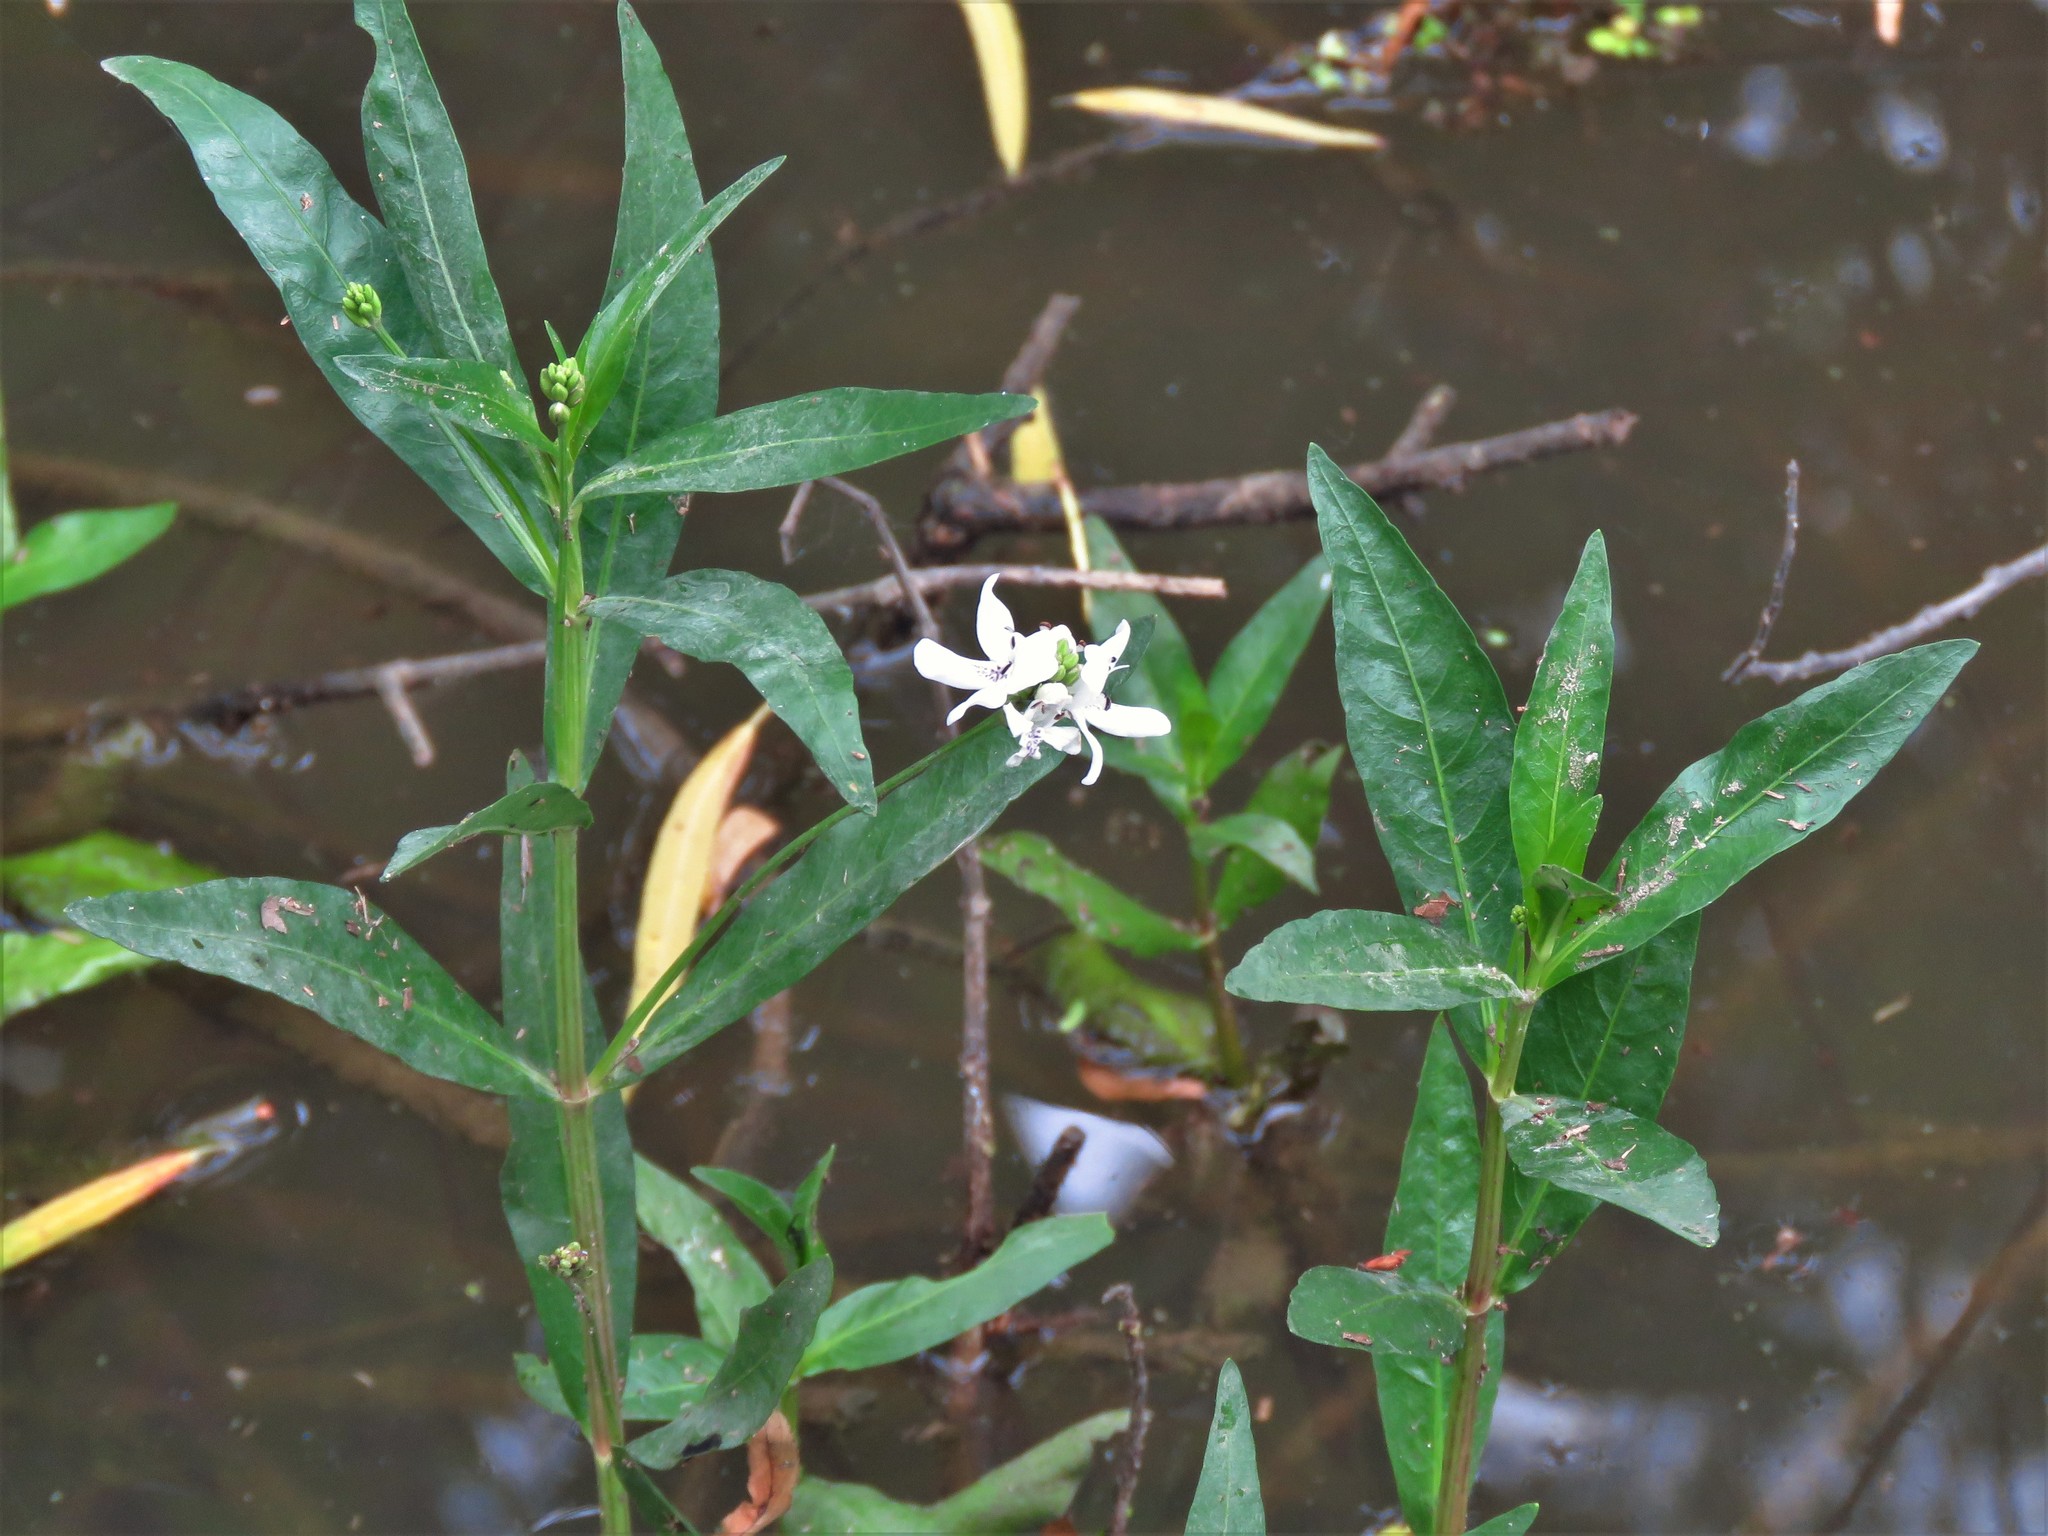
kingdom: Plantae
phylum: Tracheophyta
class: Magnoliopsida
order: Lamiales
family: Acanthaceae
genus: Dianthera
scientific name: Dianthera americana
